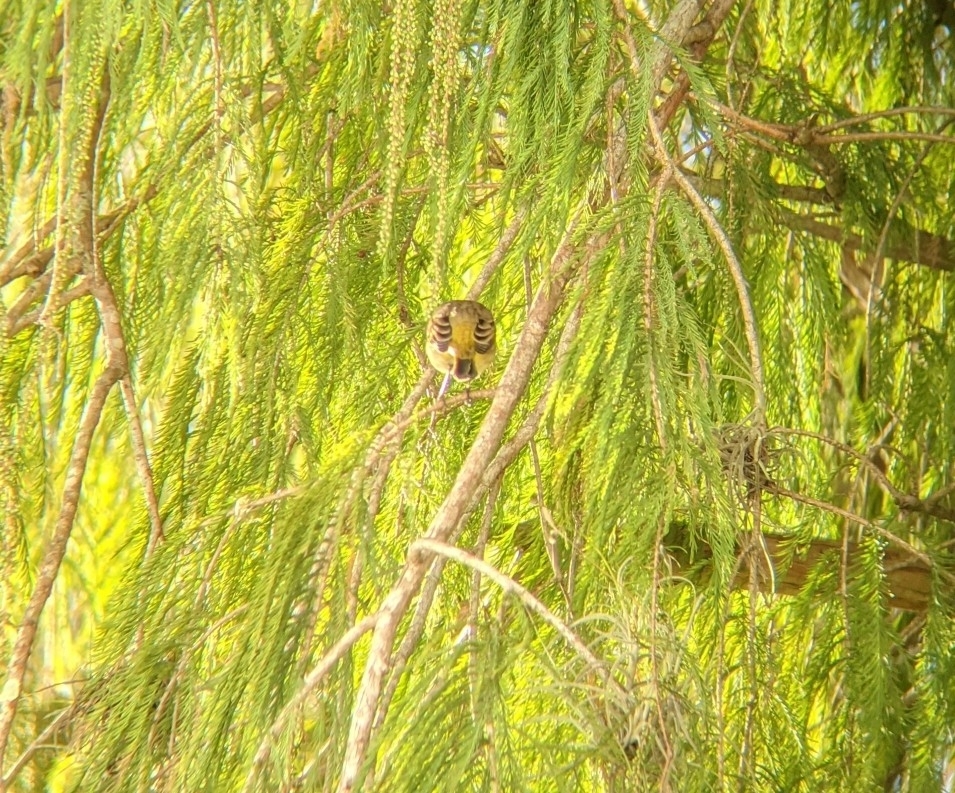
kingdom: Animalia
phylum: Chordata
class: Aves
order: Passeriformes
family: Parulidae
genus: Setophaga
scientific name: Setophaga palmarum
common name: Palm warbler
